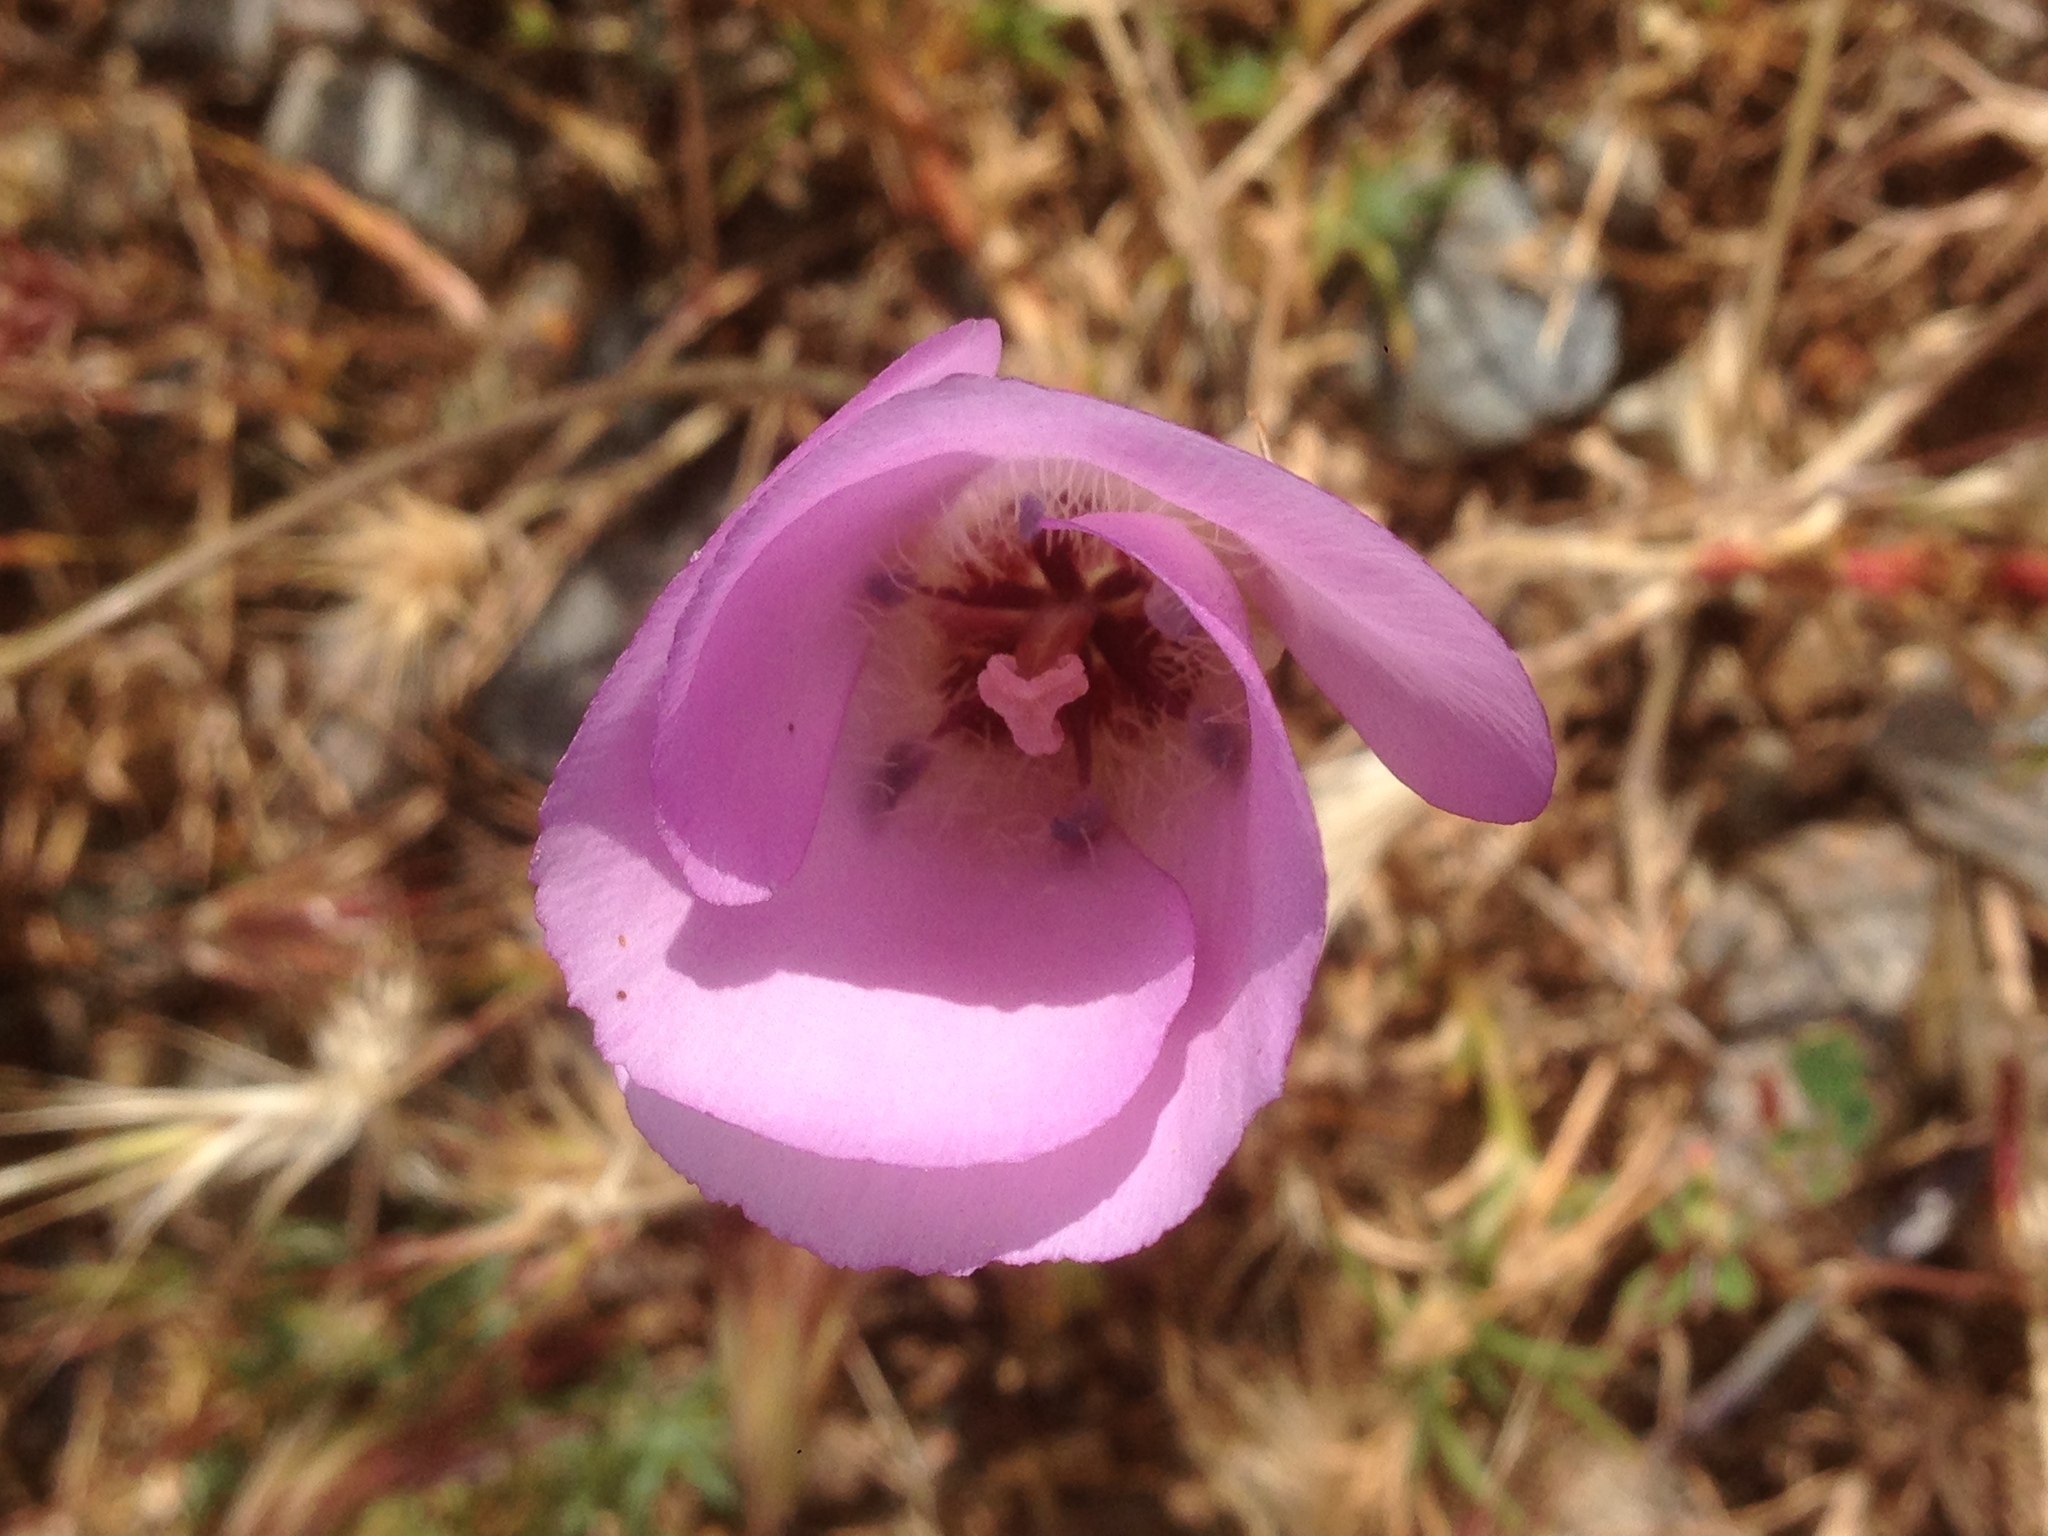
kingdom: Plantae
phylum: Tracheophyta
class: Liliopsida
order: Liliales
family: Liliaceae
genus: Calochortus
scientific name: Calochortus splendens
